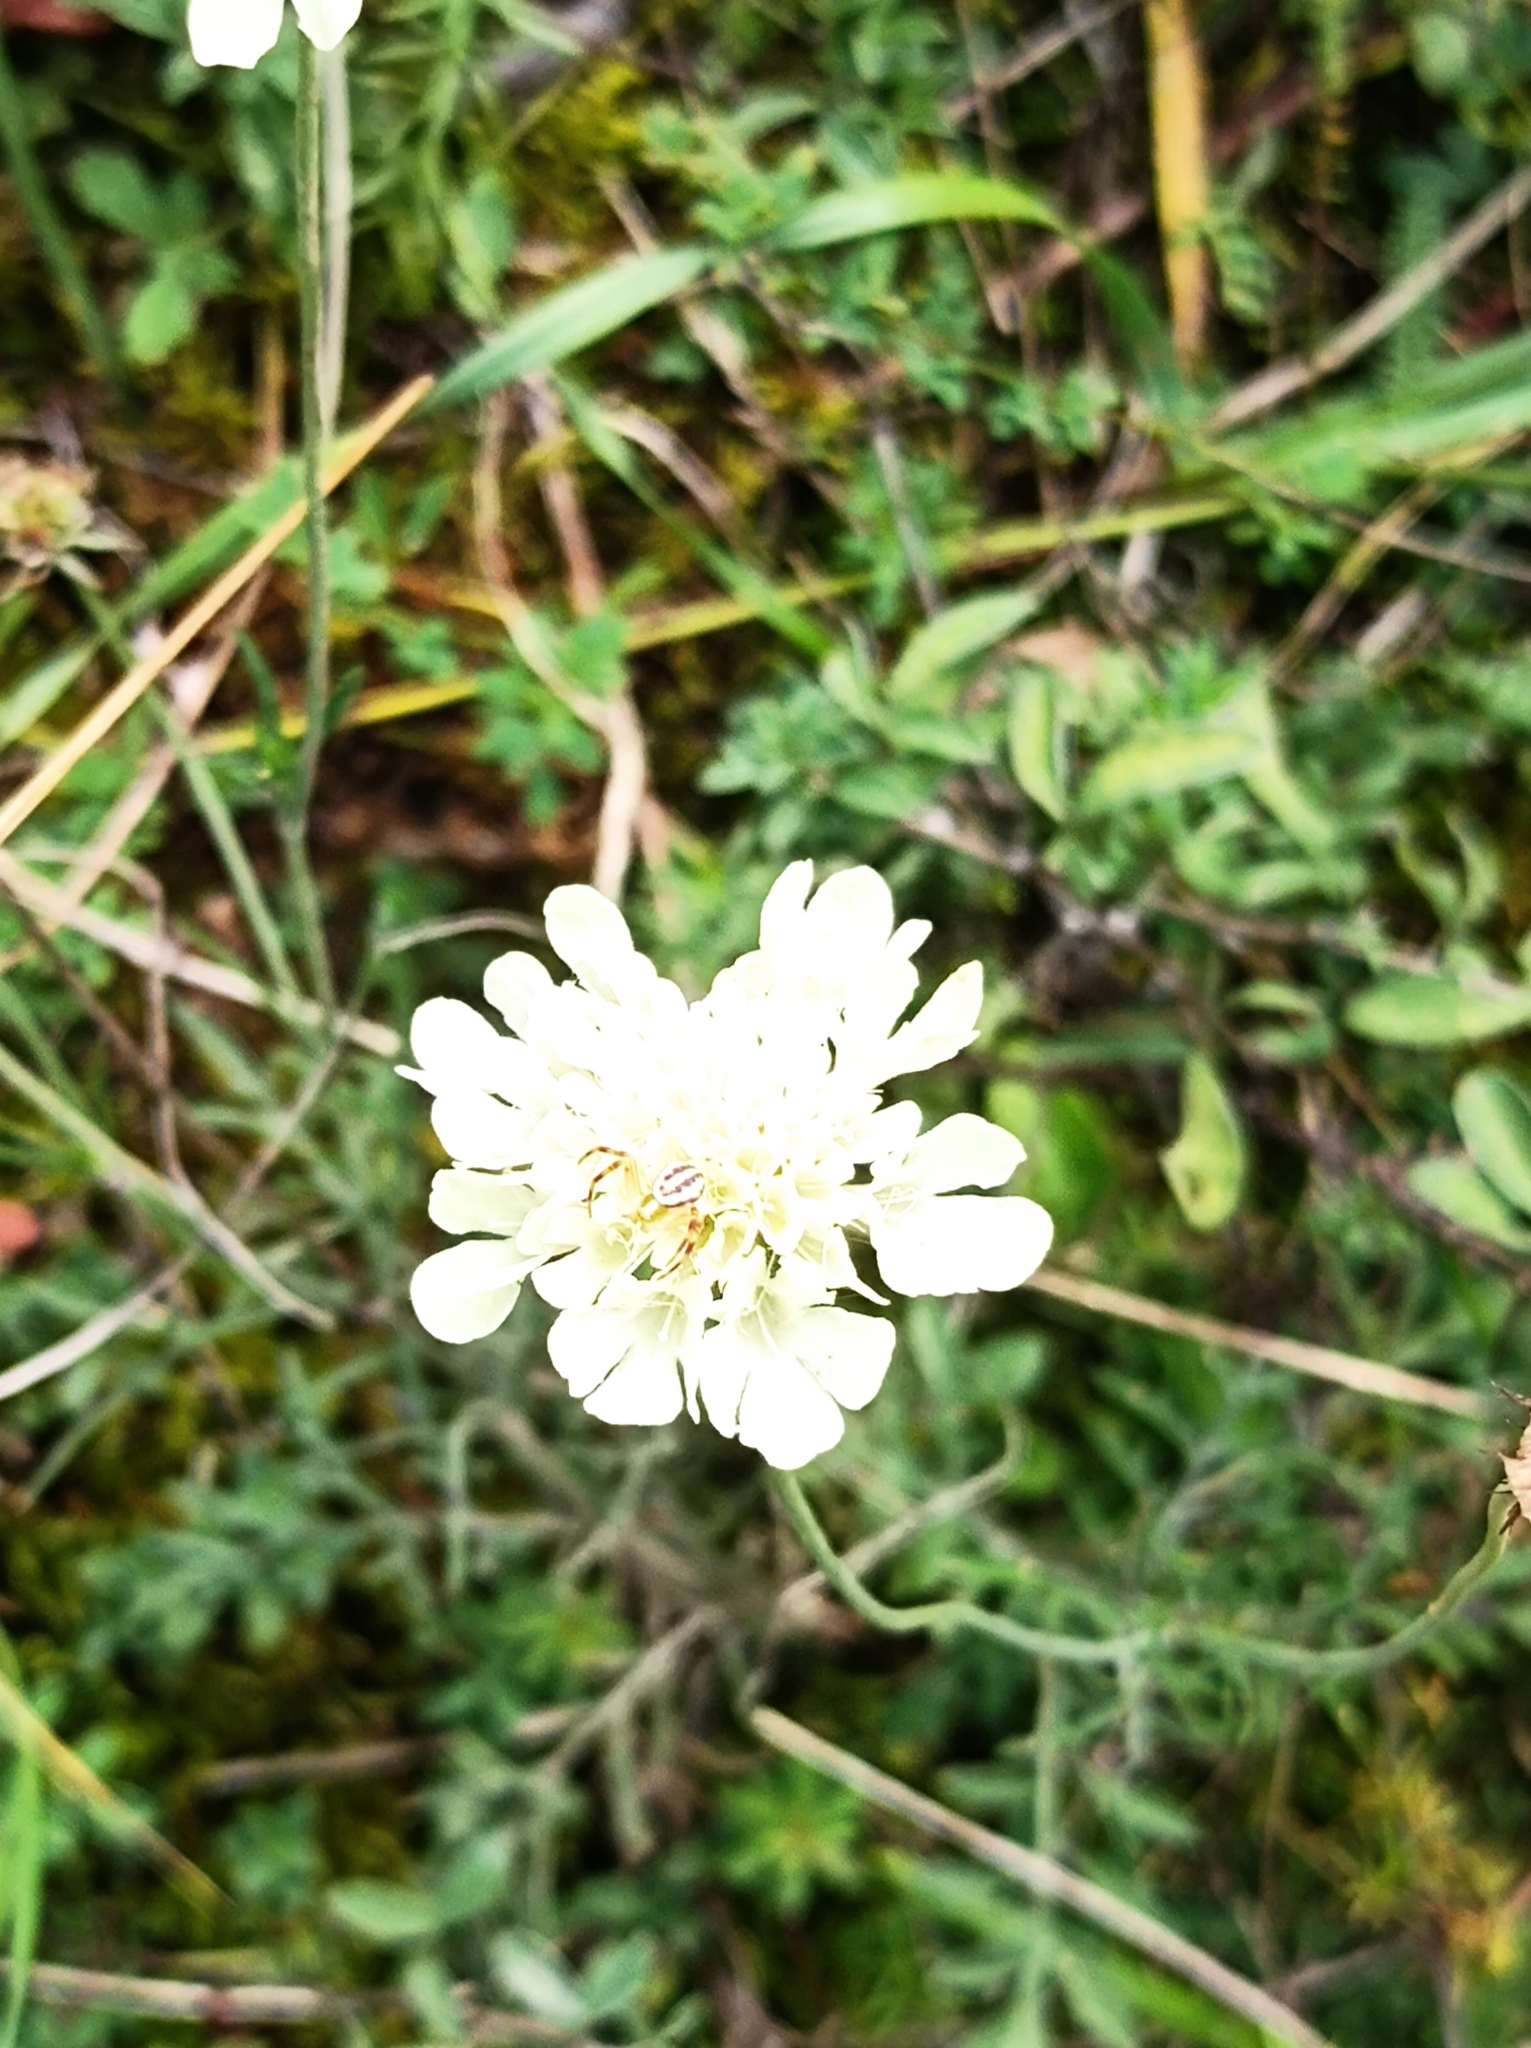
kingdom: Plantae
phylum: Tracheophyta
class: Magnoliopsida
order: Dipsacales
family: Caprifoliaceae
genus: Scabiosa
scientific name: Scabiosa ochroleuca
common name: Cream pincushions
